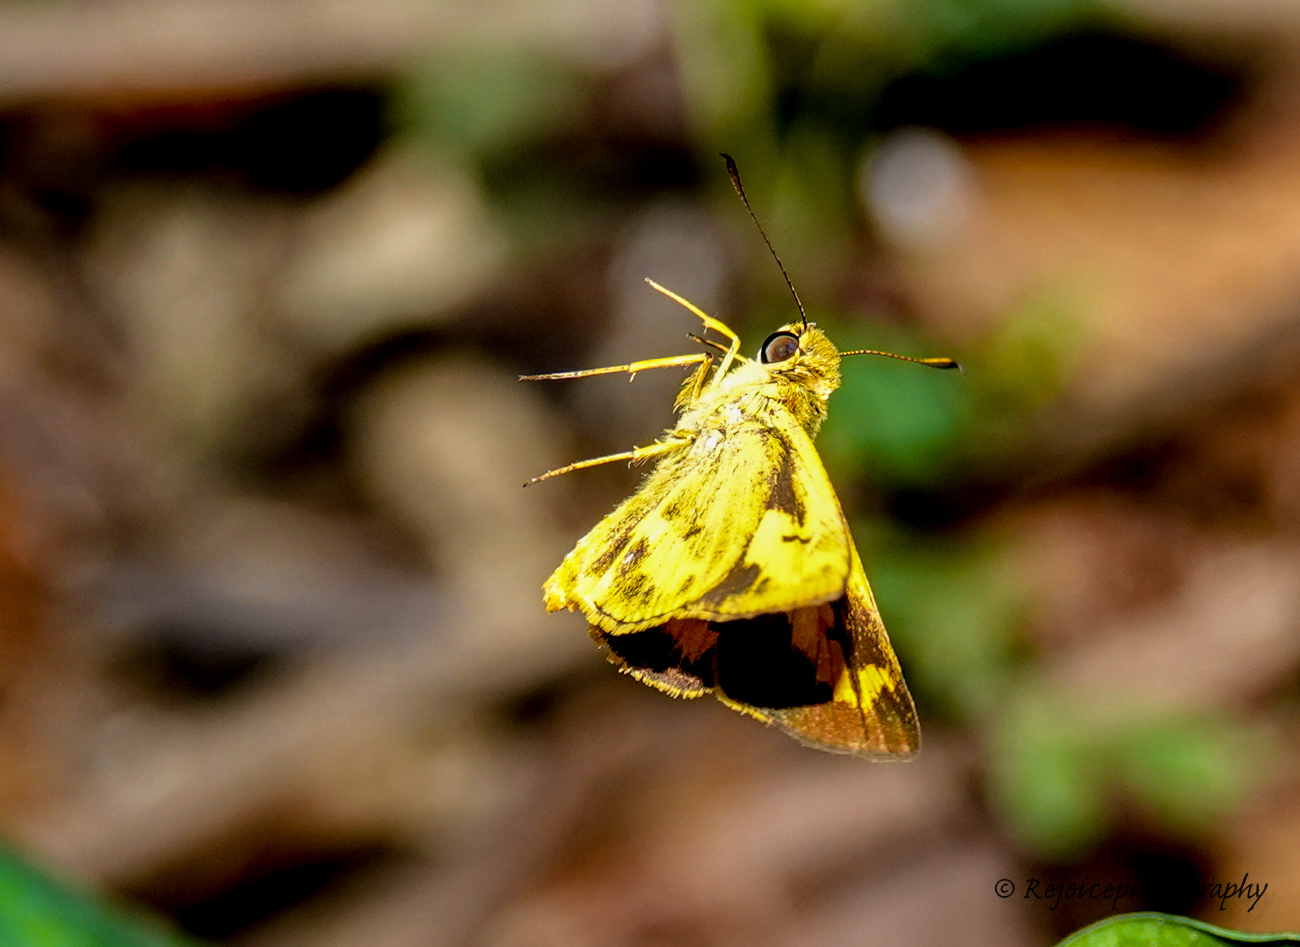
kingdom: Animalia
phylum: Arthropoda
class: Insecta
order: Lepidoptera
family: Hesperiidae
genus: Oriens
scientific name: Oriens goloides
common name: Smaller dartlet
